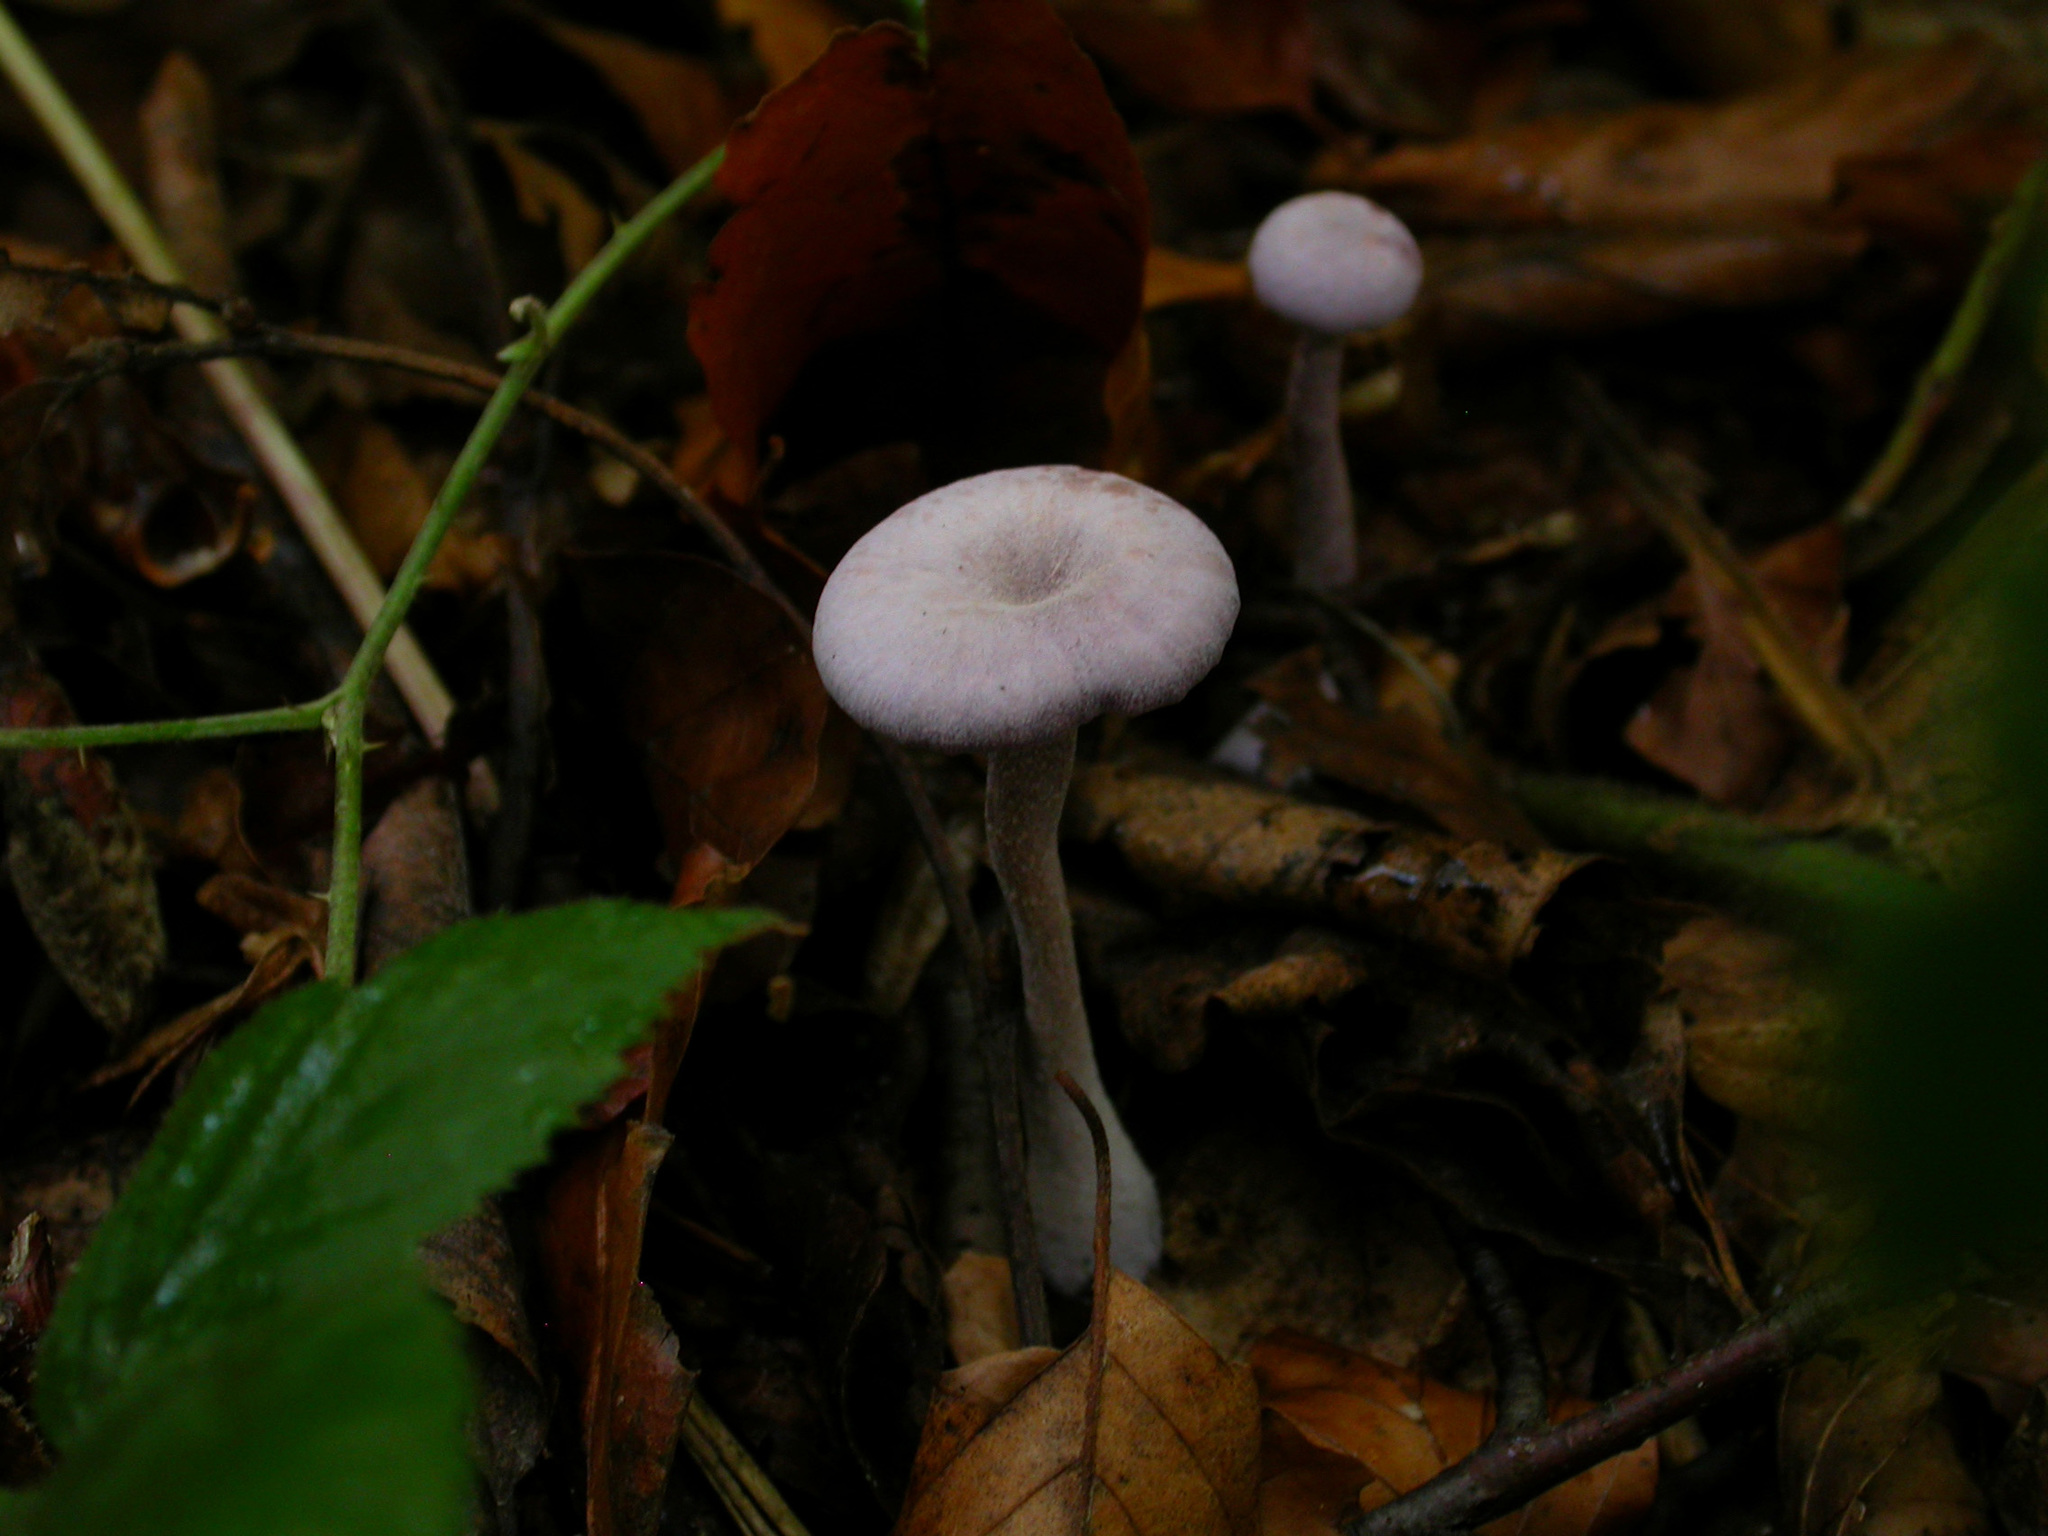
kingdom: Fungi
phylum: Basidiomycota
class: Agaricomycetes
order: Agaricales
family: Hydnangiaceae
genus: Laccaria
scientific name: Laccaria amethystina
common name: Amethyst deceiver
